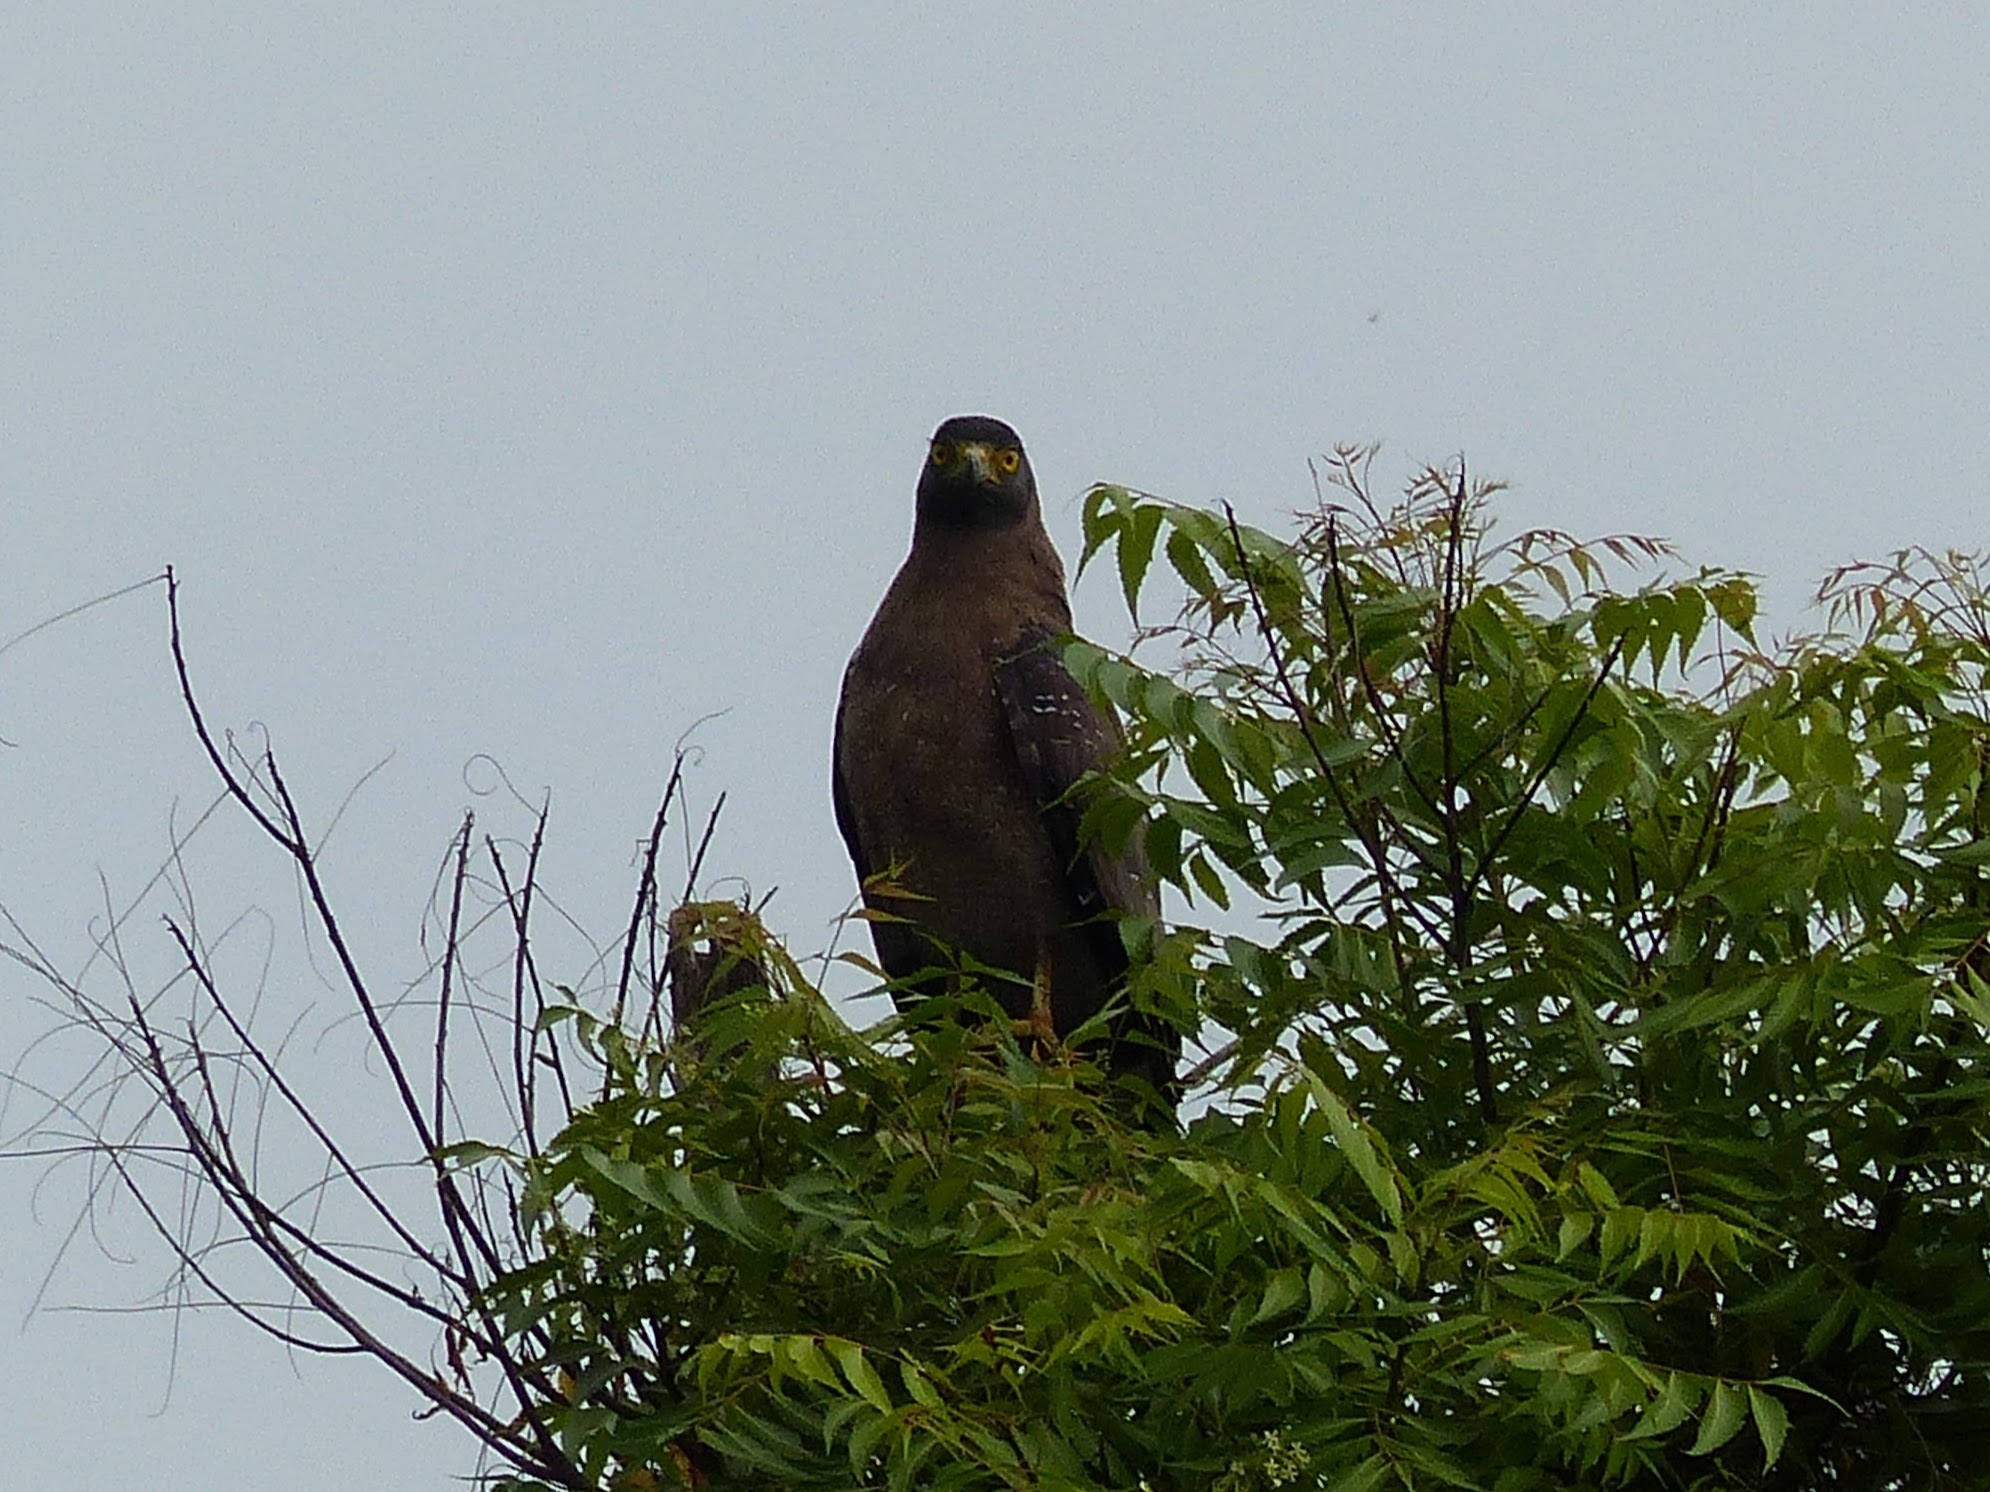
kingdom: Animalia
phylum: Chordata
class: Aves
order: Accipitriformes
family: Accipitridae
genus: Spilornis
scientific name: Spilornis cheela
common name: Crested serpent eagle
